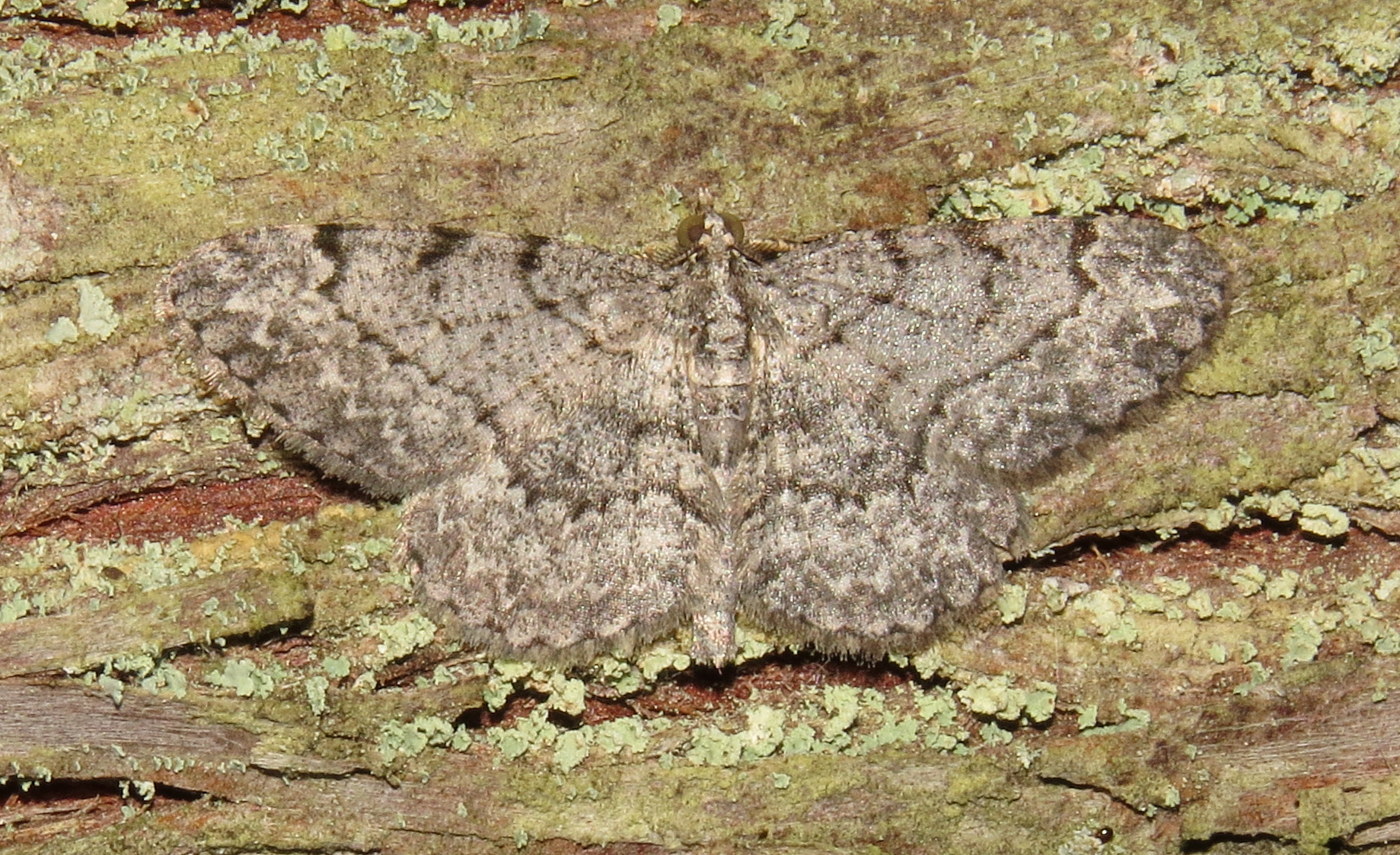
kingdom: Animalia
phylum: Arthropoda
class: Insecta
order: Lepidoptera
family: Geometridae
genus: Protoboarmia
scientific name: Protoboarmia porcelaria
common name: Porcelain gray
